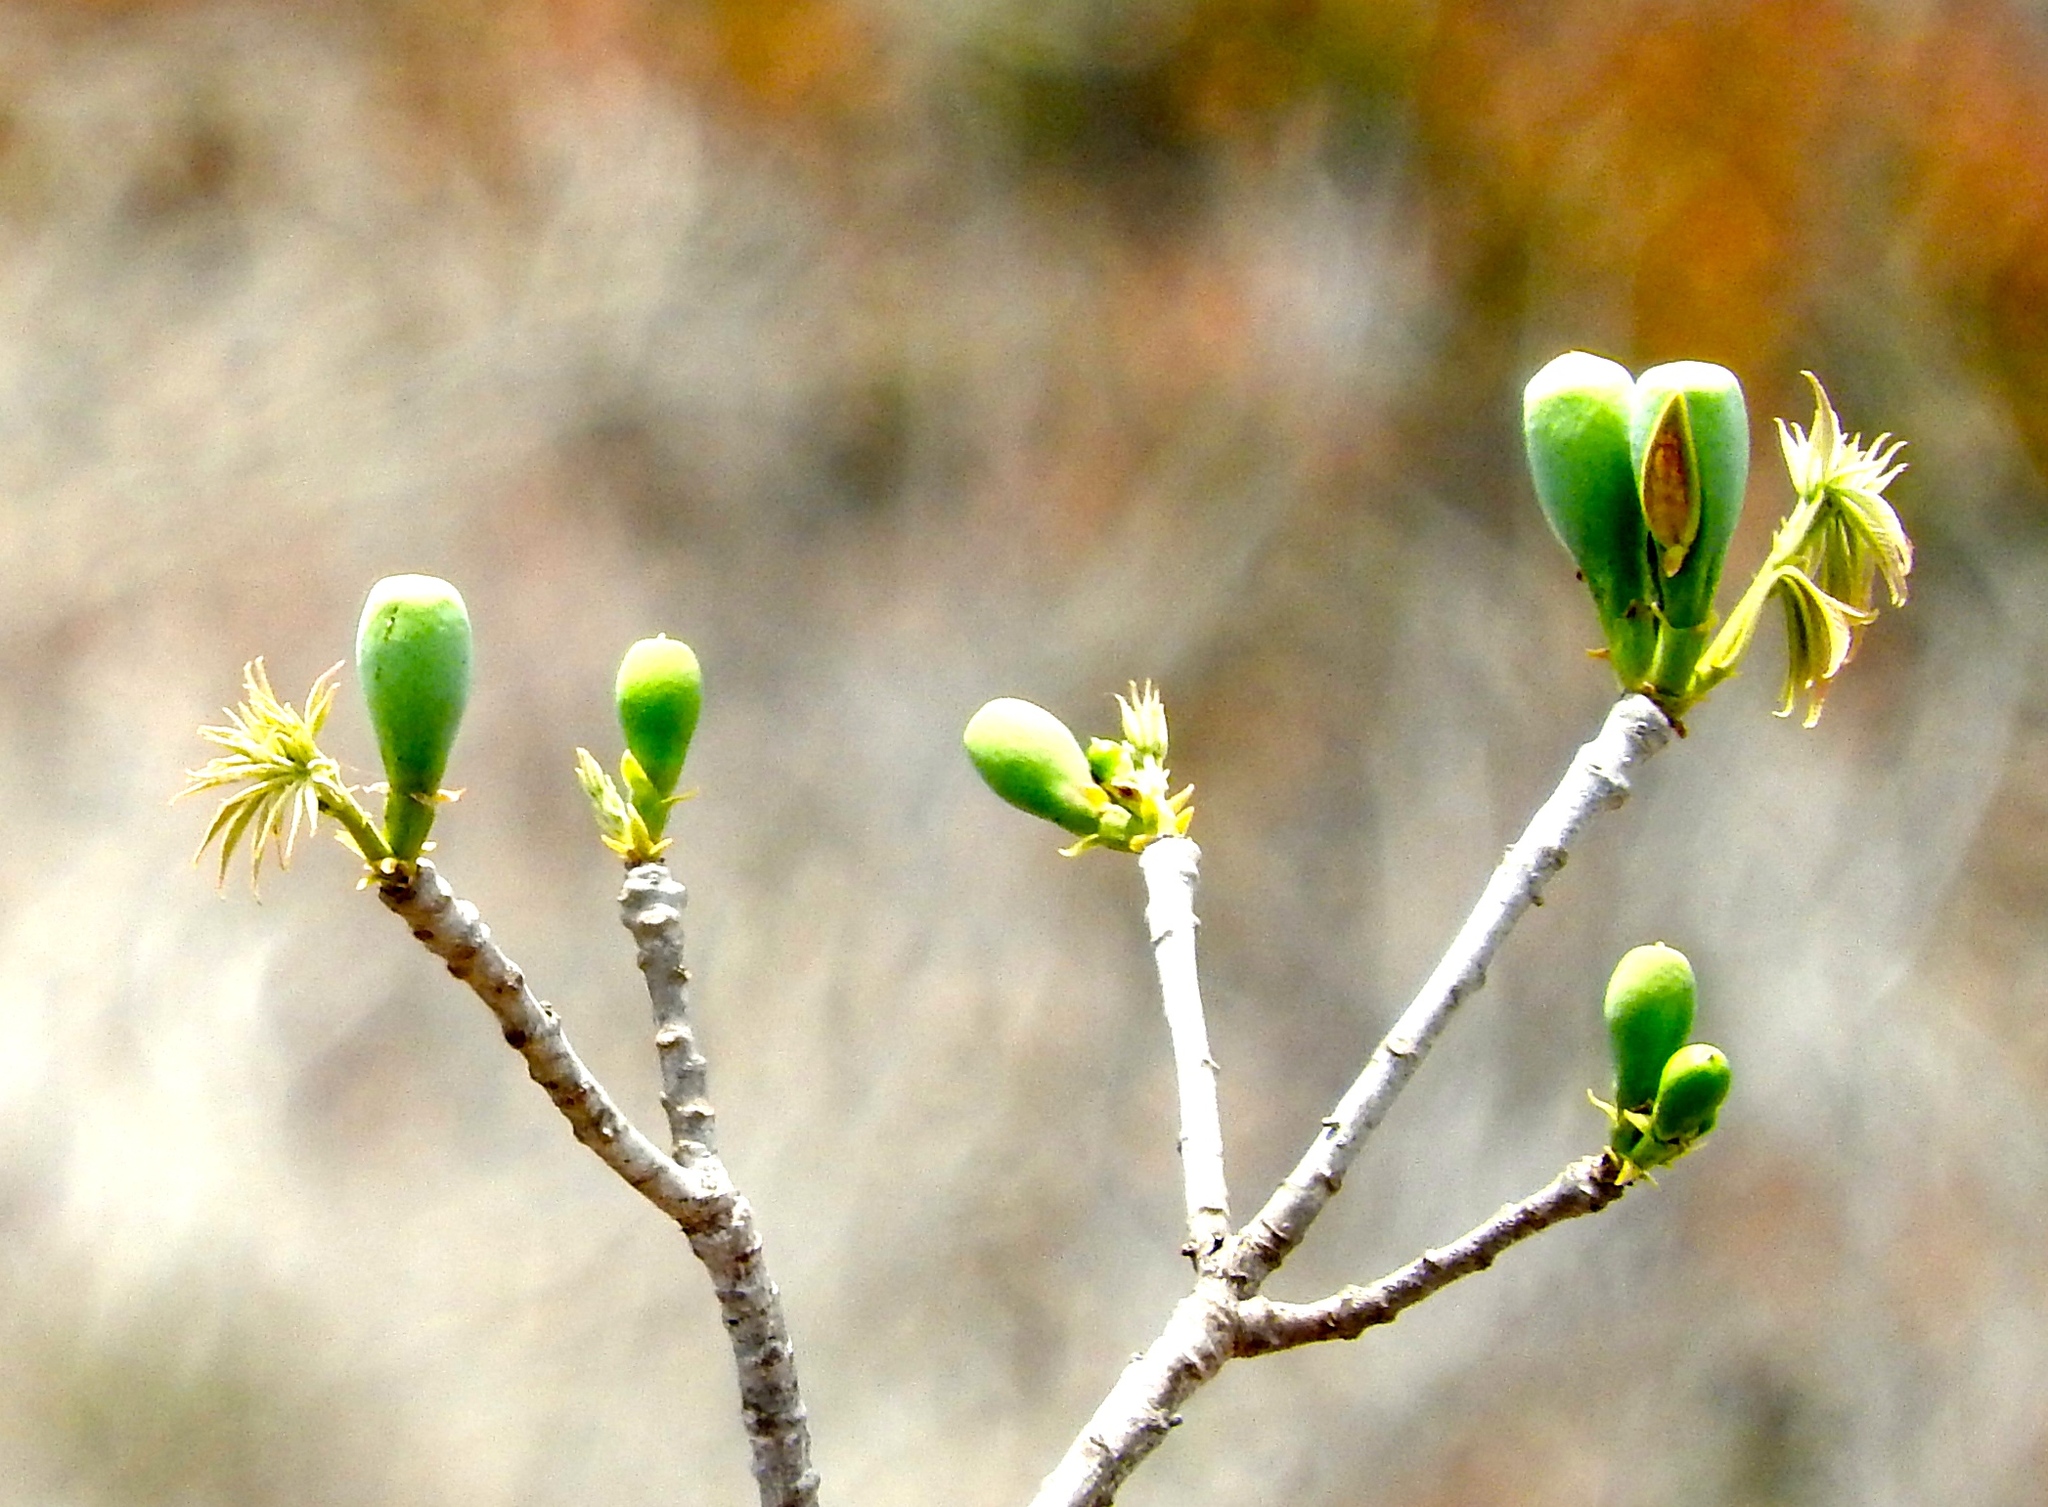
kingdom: Plantae
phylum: Tracheophyta
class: Magnoliopsida
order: Malvales
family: Malvaceae
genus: Ceiba
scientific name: Ceiba aesculifolia
